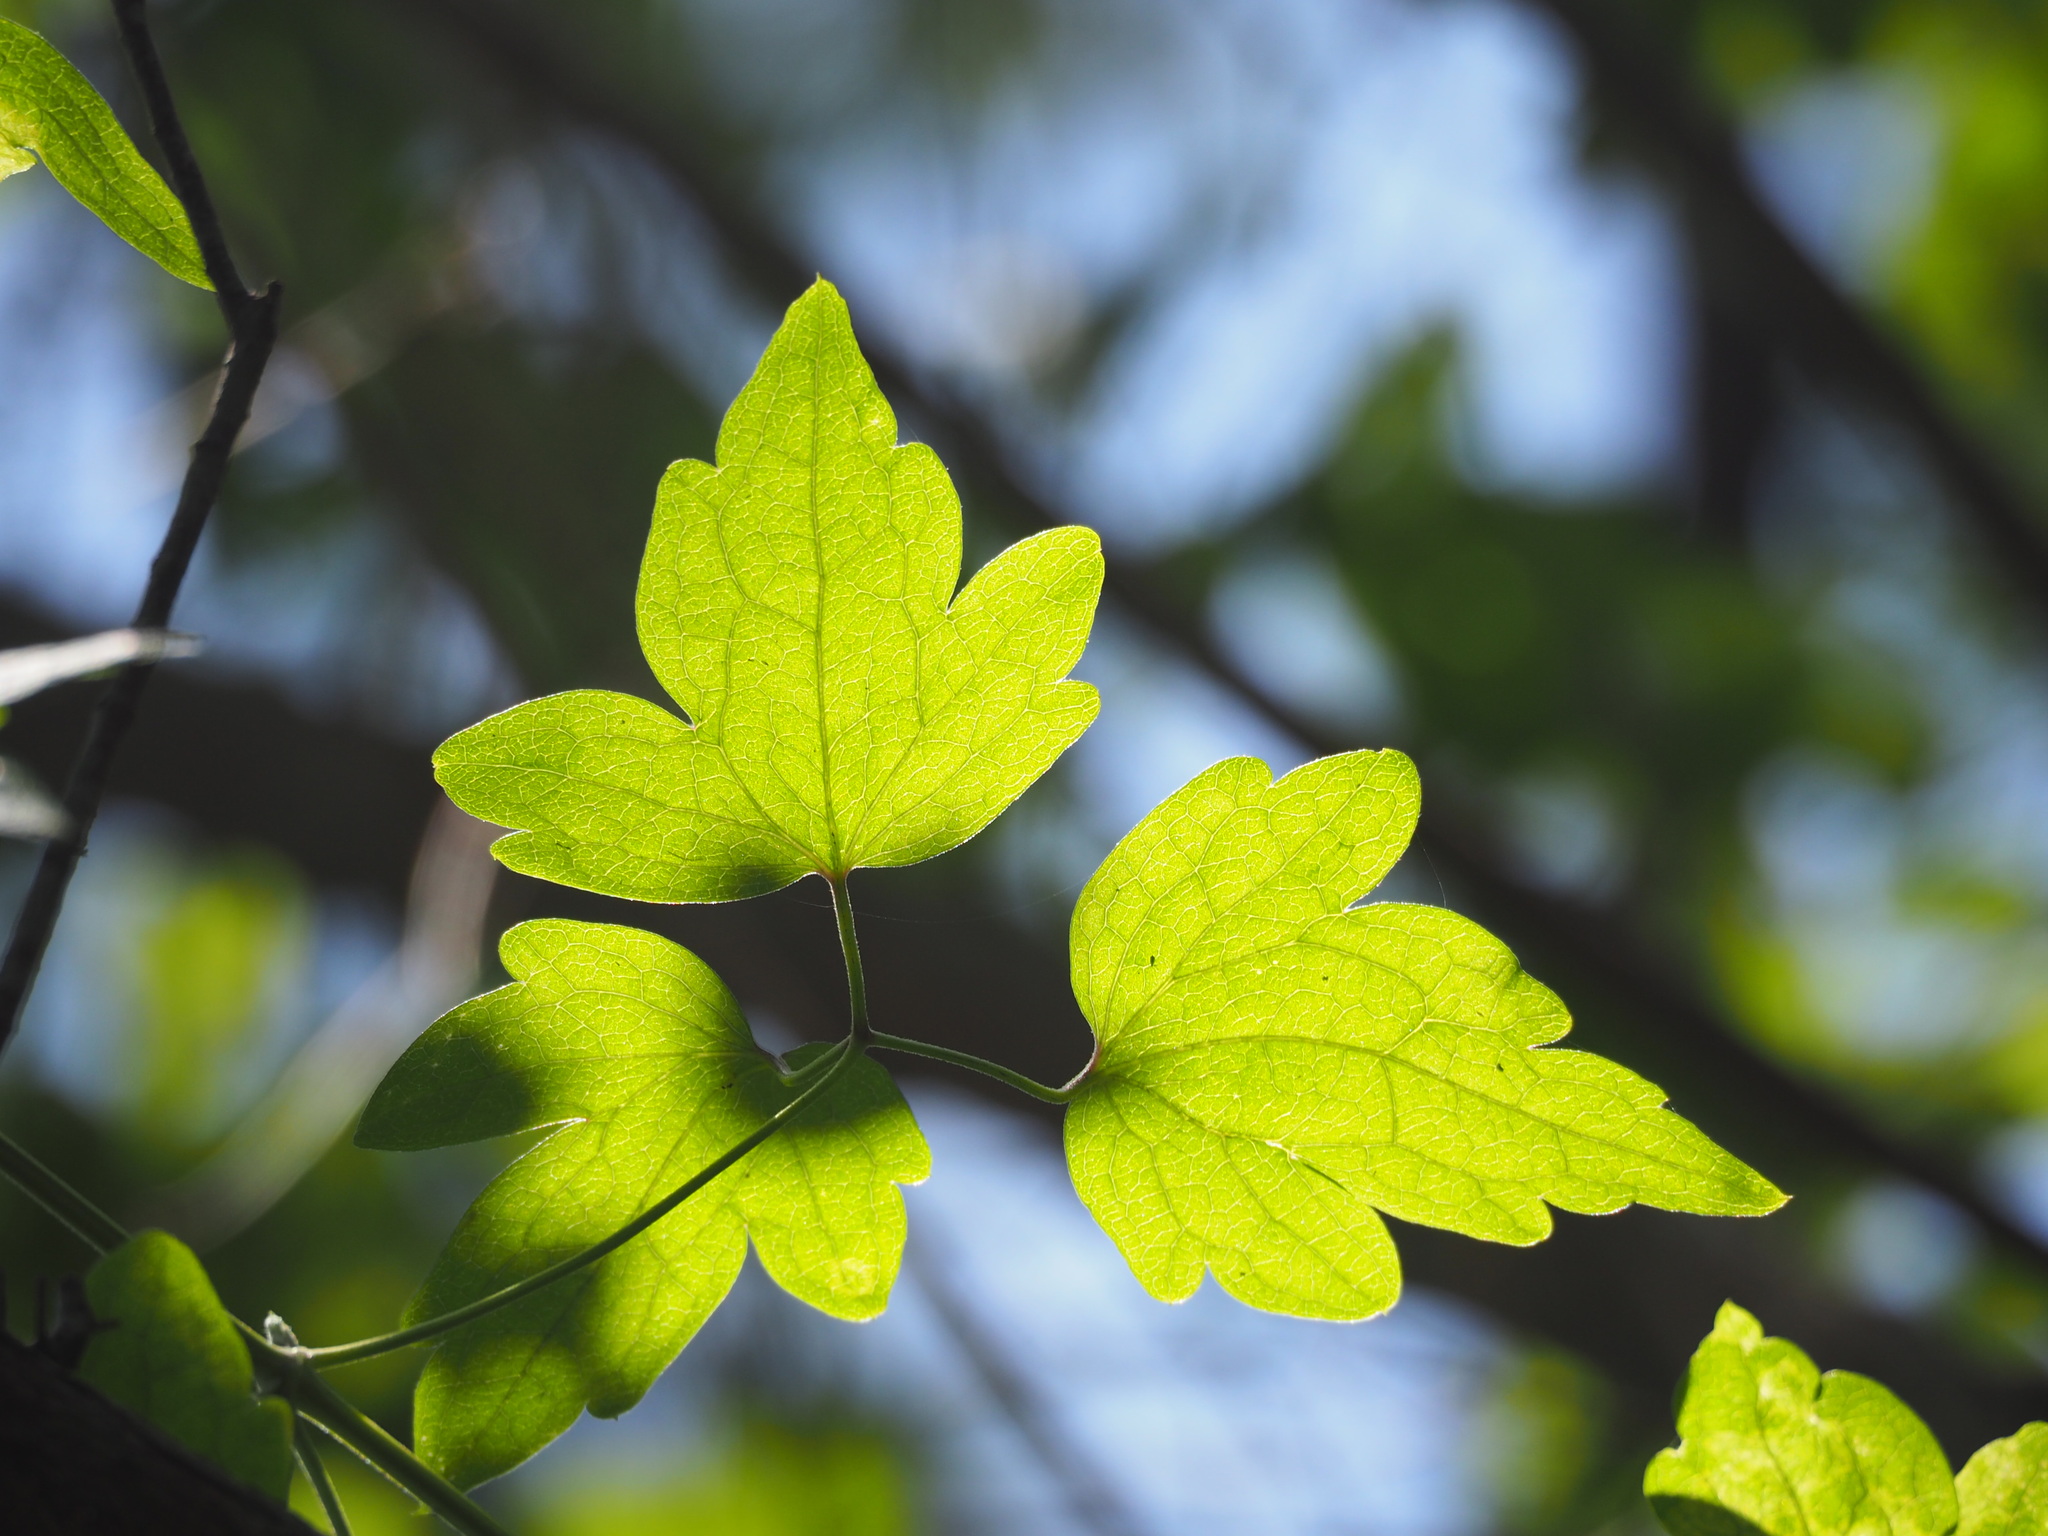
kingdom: Plantae
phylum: Tracheophyta
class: Magnoliopsida
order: Ranunculales
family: Ranunculaceae
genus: Clematis
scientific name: Clematis grata
